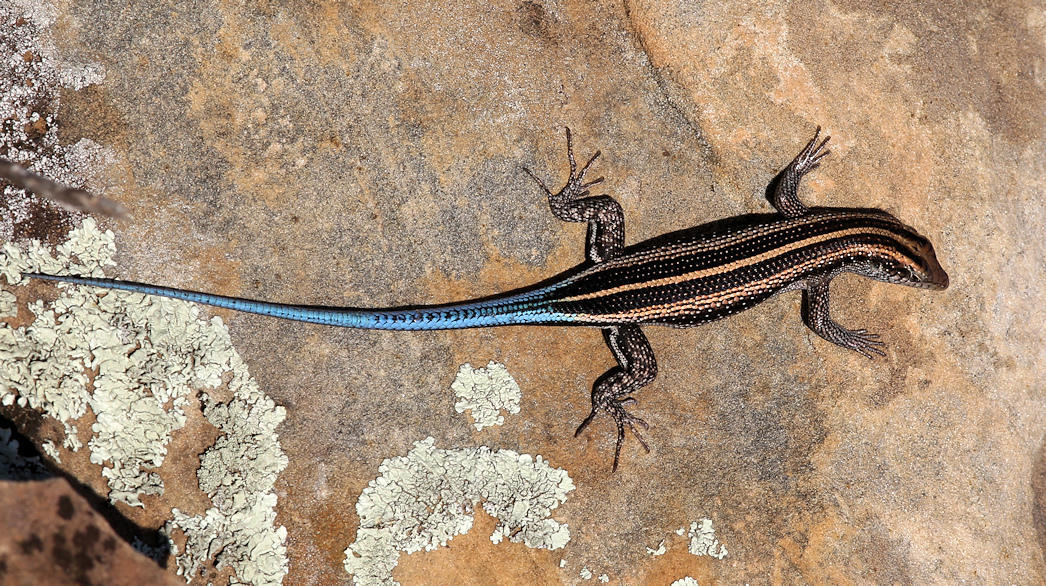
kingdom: Animalia
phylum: Chordata
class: Squamata
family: Scincidae
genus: Trachylepis
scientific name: Trachylepis margaritifera
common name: Rainbow skink
